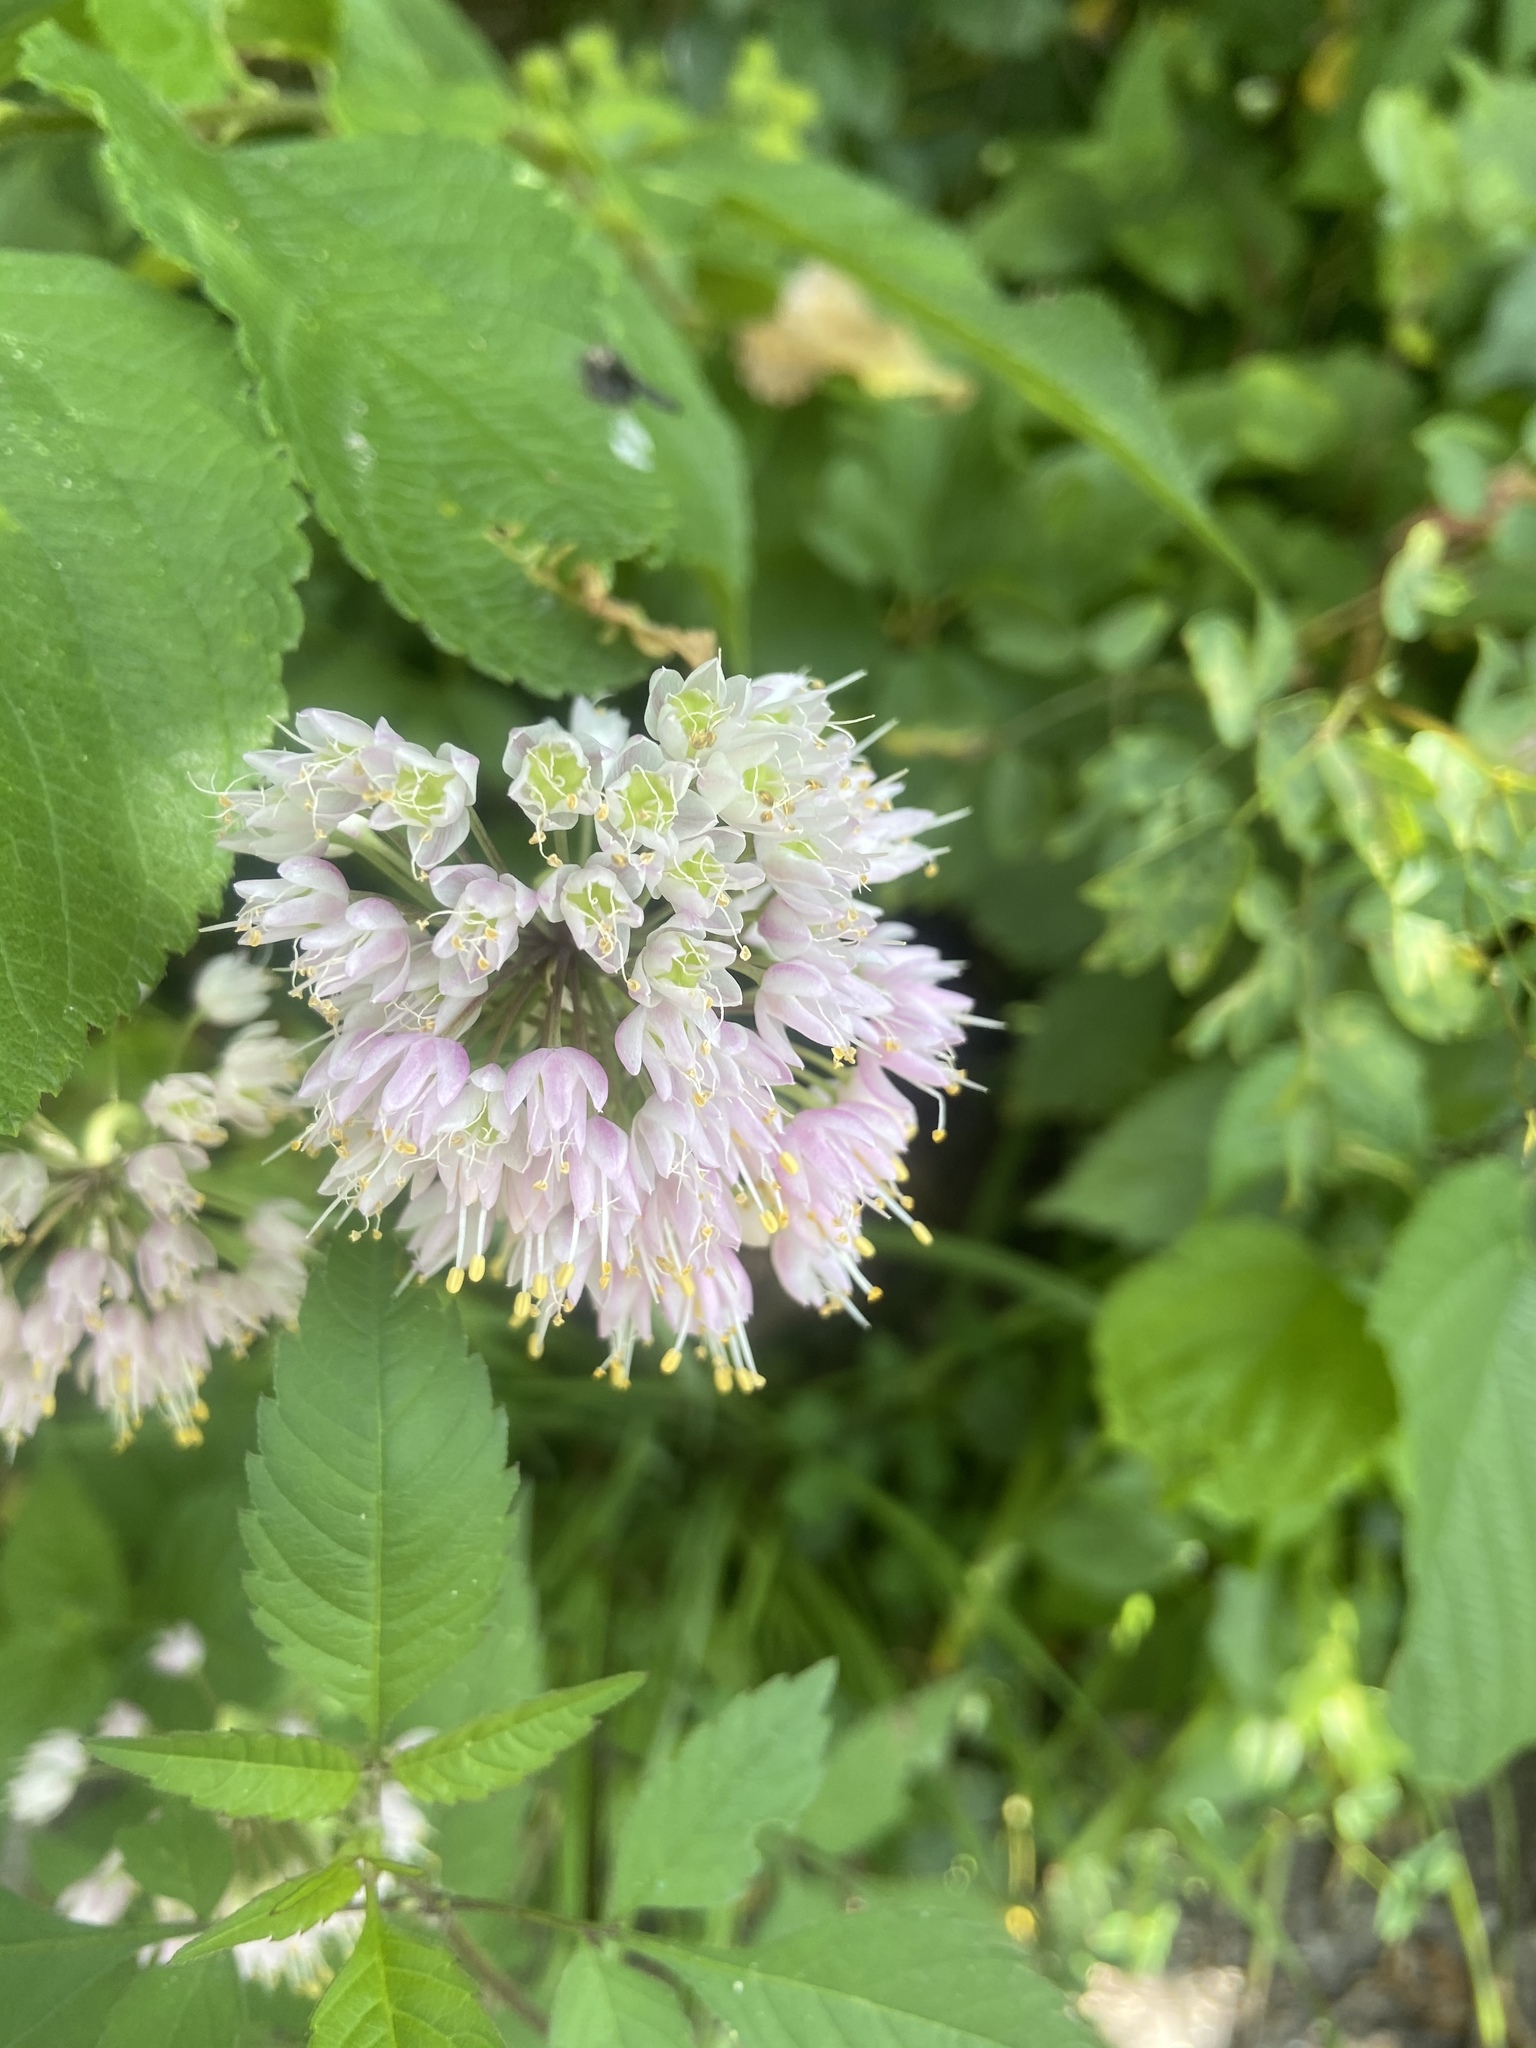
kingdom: Plantae
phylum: Tracheophyta
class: Liliopsida
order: Asparagales
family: Amaryllidaceae
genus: Allium
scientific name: Allium cernuum
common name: Nodding onion
